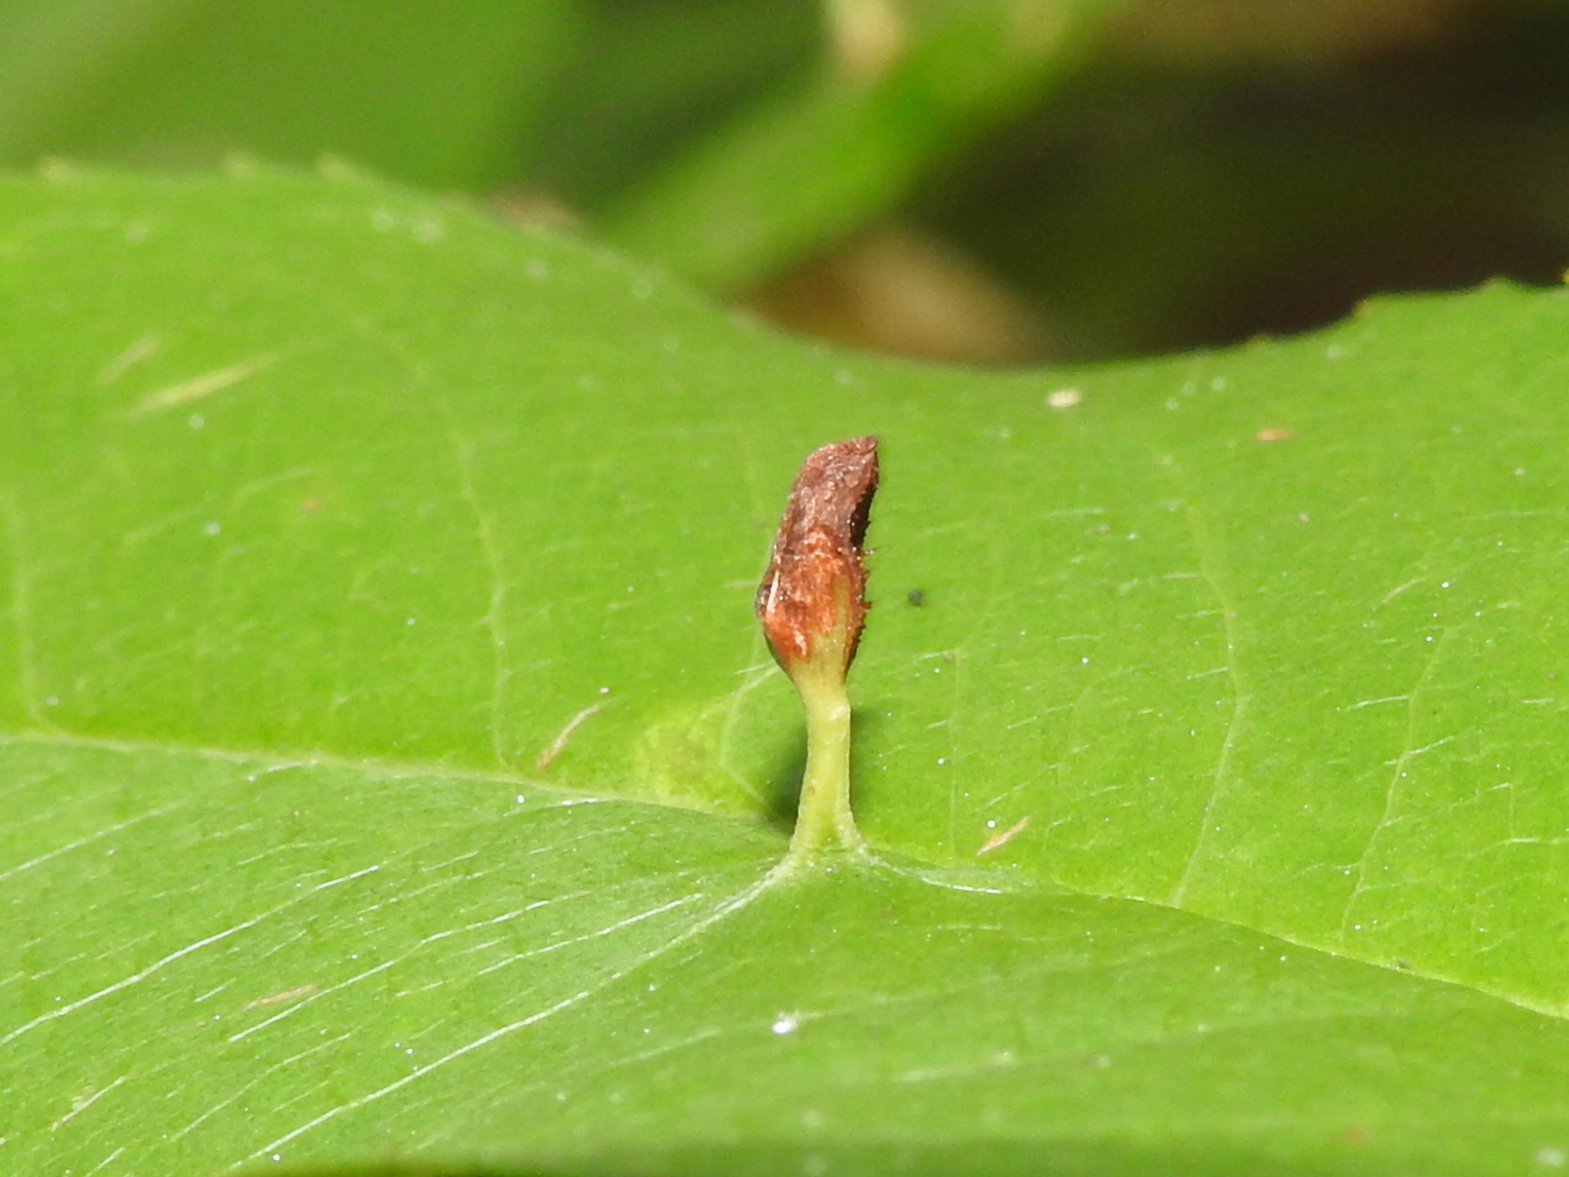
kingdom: Animalia
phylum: Arthropoda
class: Arachnida
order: Trombidiformes
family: Eriophyidae
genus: Eriophyes
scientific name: Eriophyes
